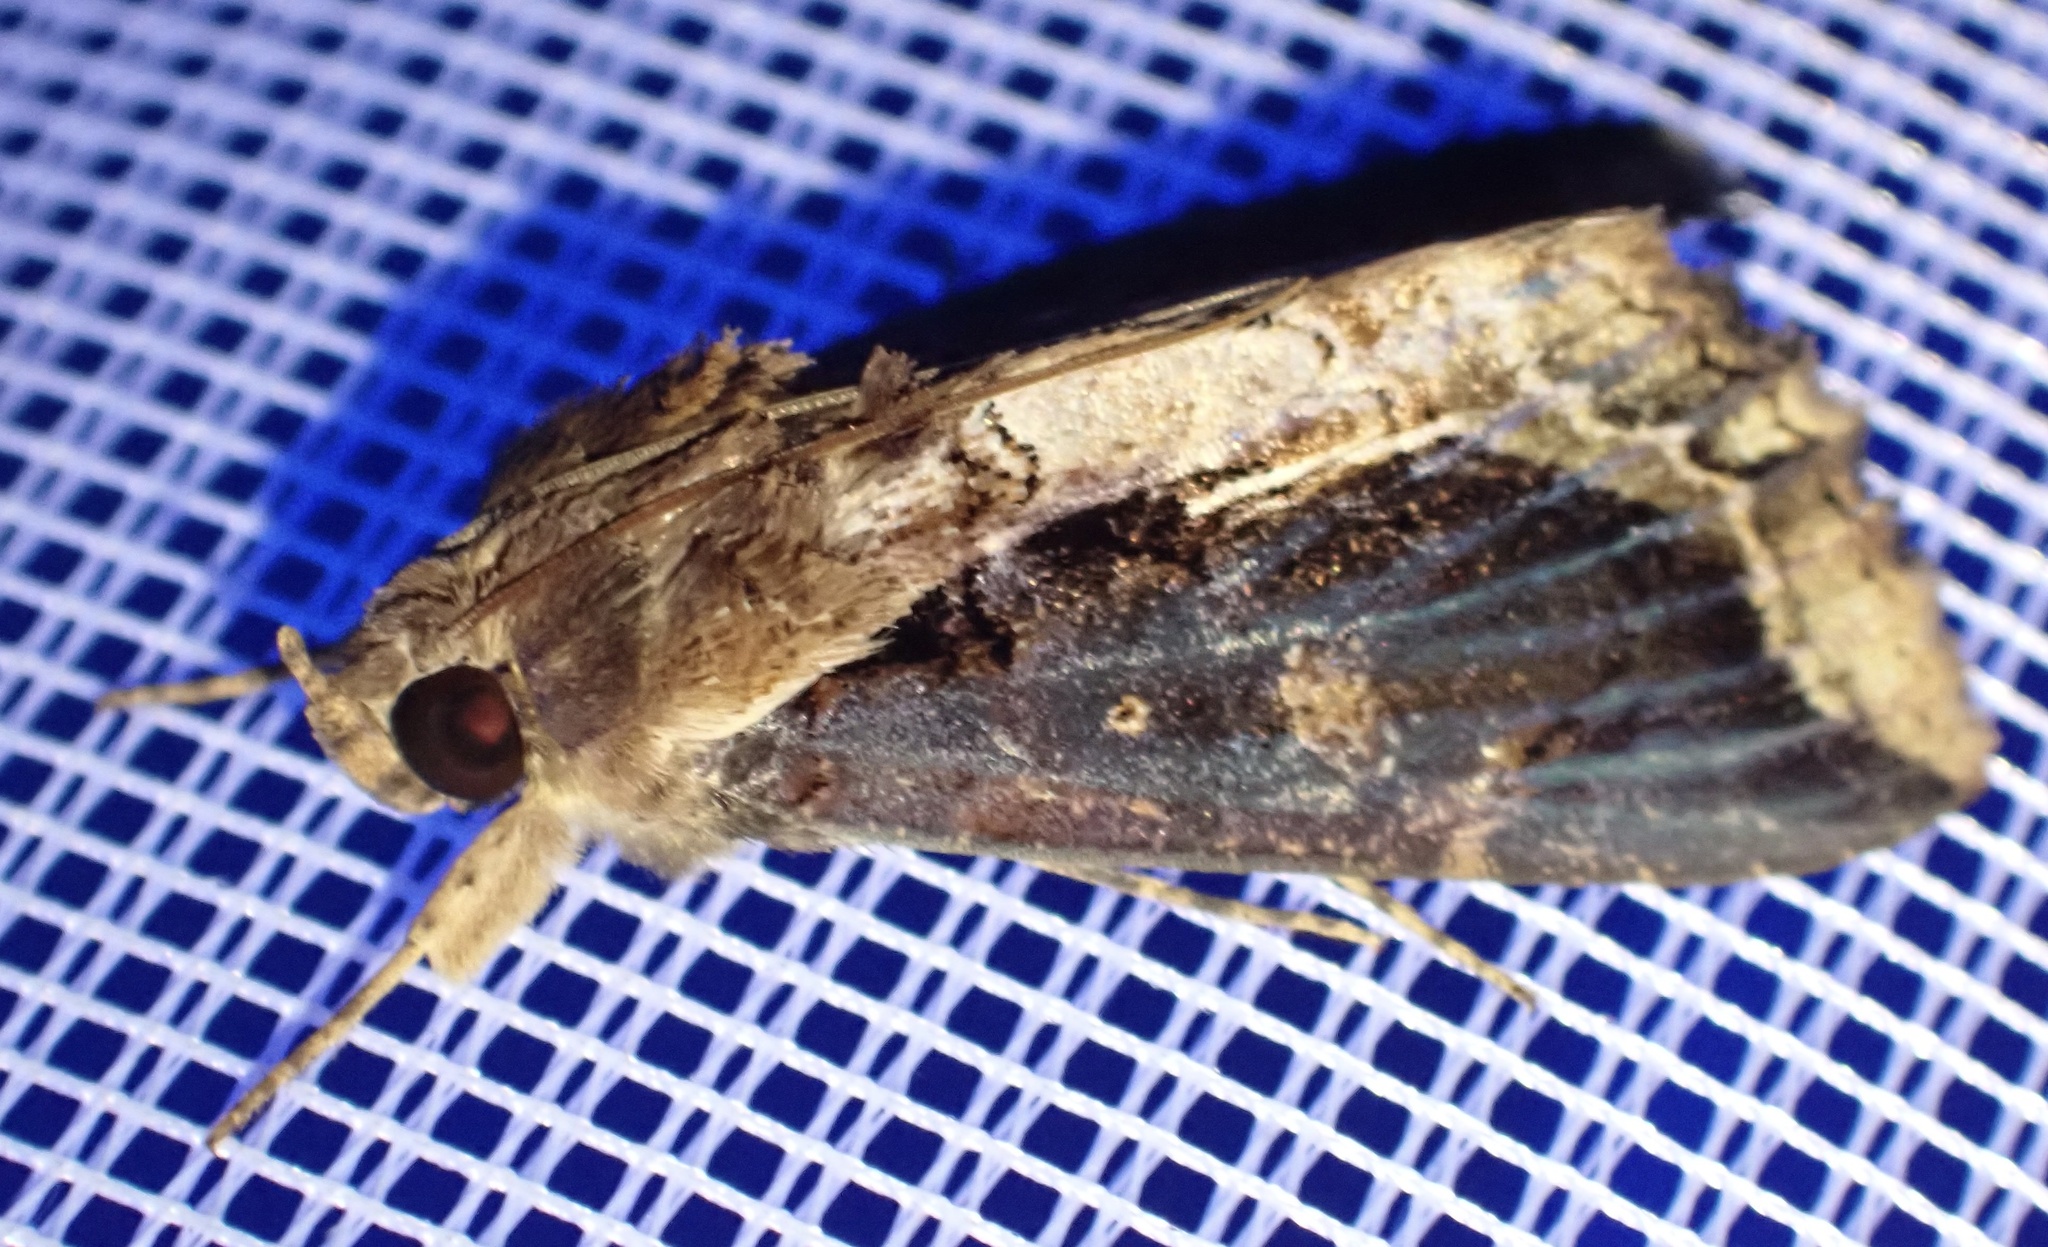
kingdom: Animalia
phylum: Arthropoda
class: Insecta
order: Lepidoptera
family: Erebidae
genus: Ercheia
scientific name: Ercheia dubia
